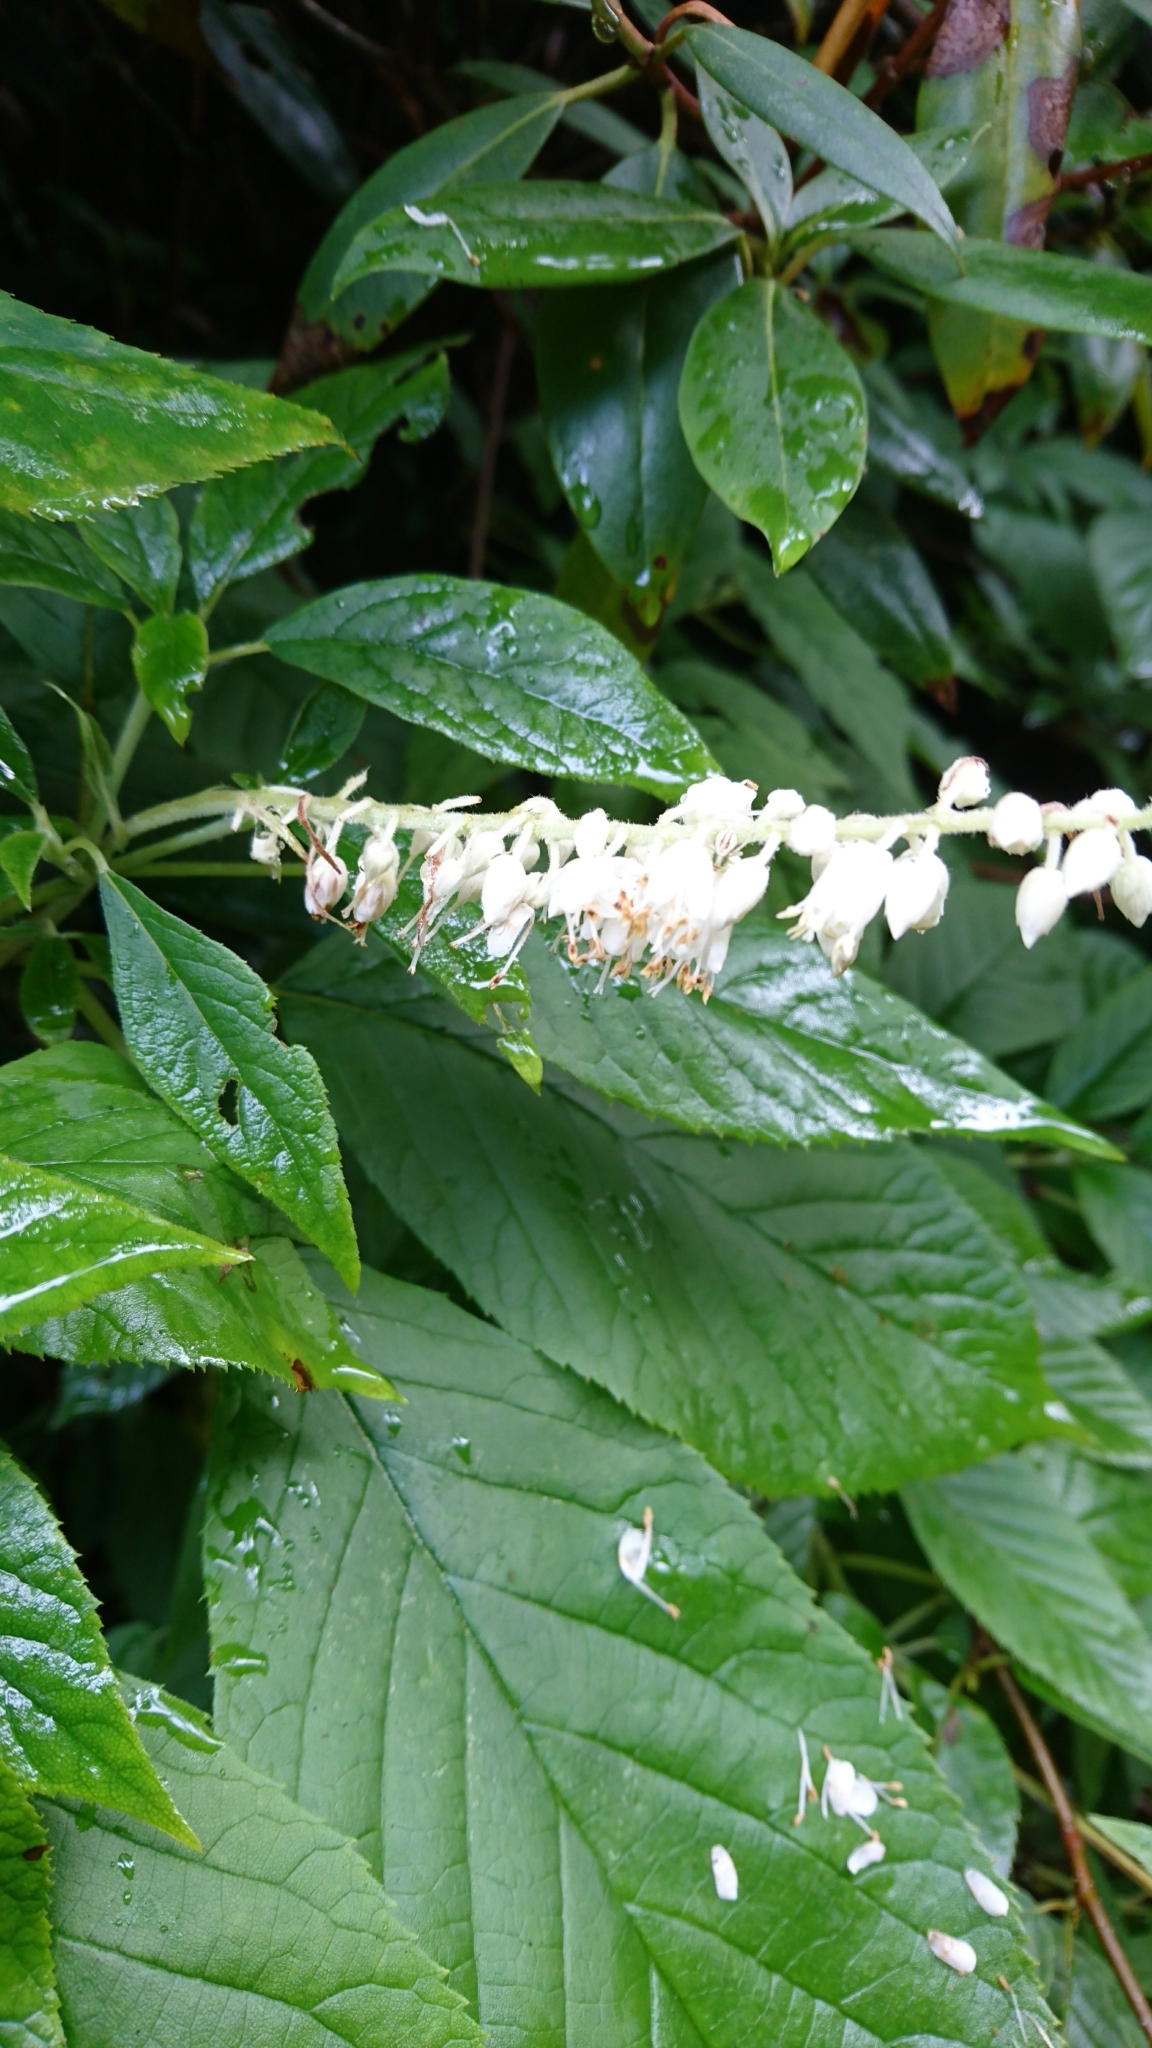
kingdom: Plantae
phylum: Tracheophyta
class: Magnoliopsida
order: Ericales
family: Clethraceae
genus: Clethra
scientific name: Clethra acuminata
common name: Mountain sweet pepperbush
